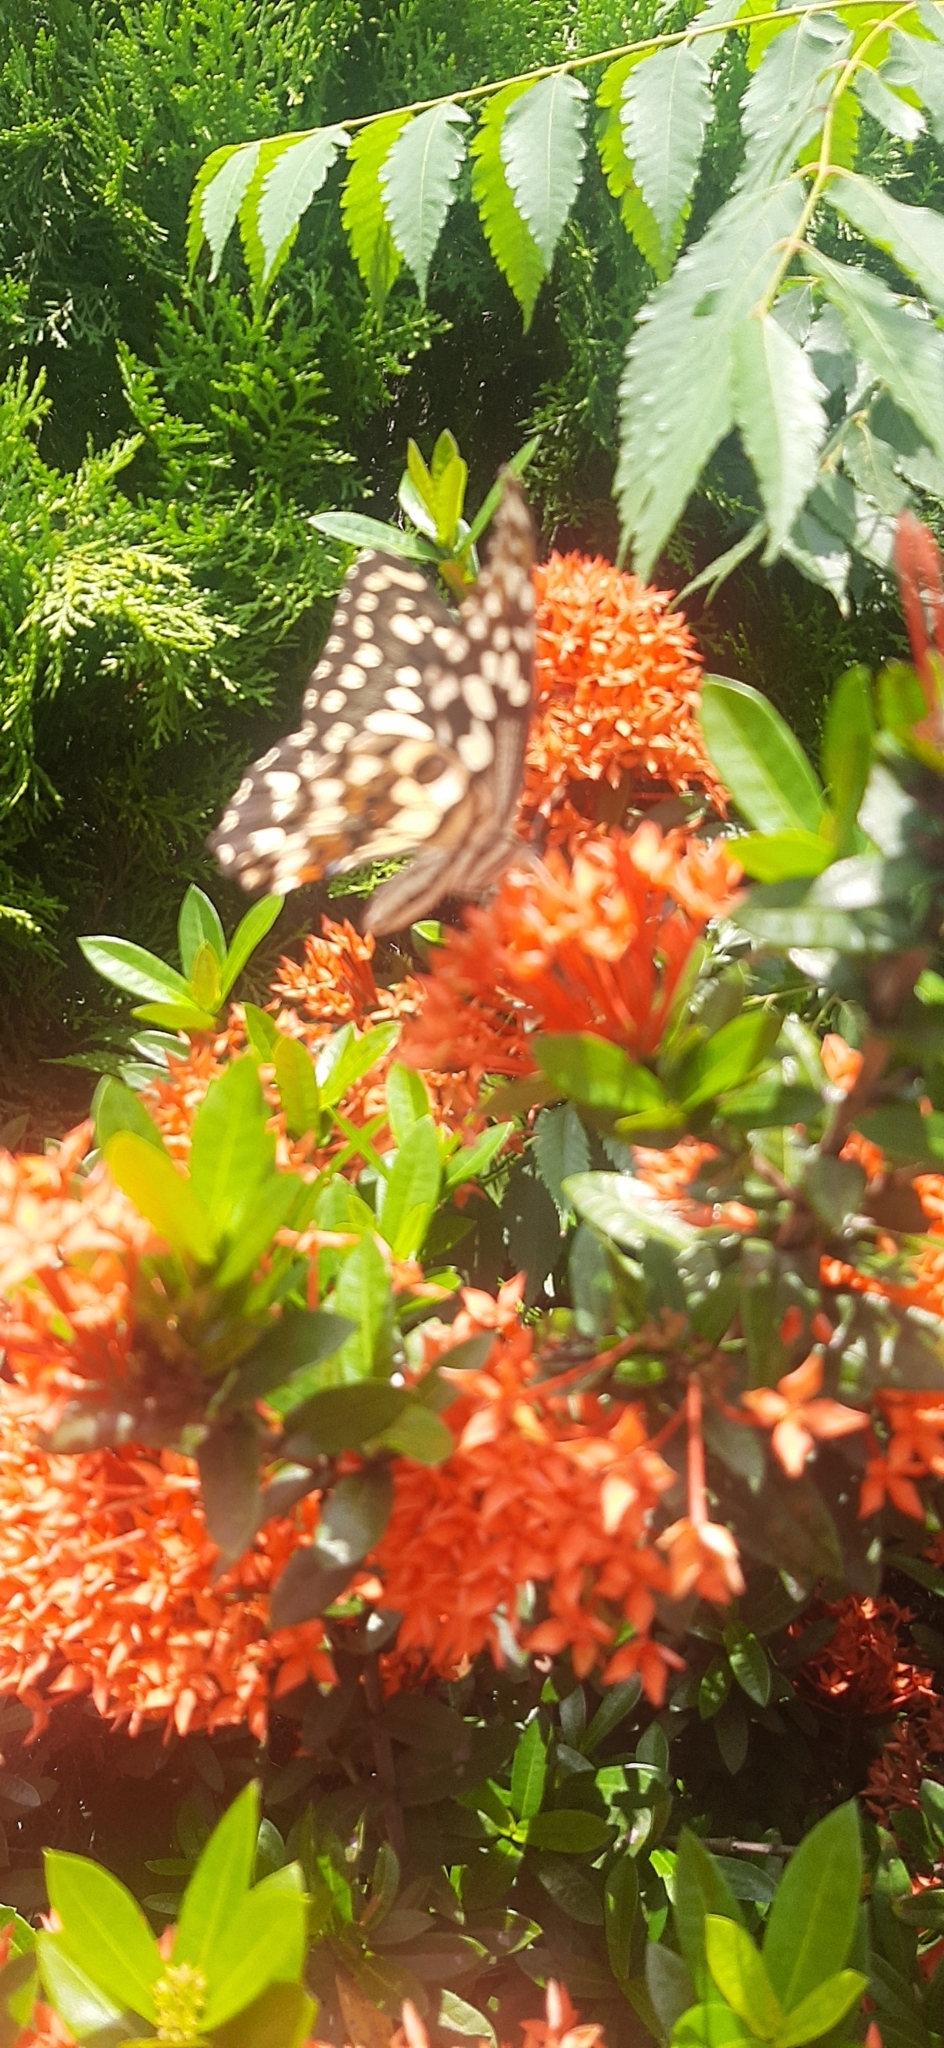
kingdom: Animalia
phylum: Arthropoda
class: Insecta
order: Lepidoptera
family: Papilionidae
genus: Papilio
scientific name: Papilio demoleus
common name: Lime butterfly
